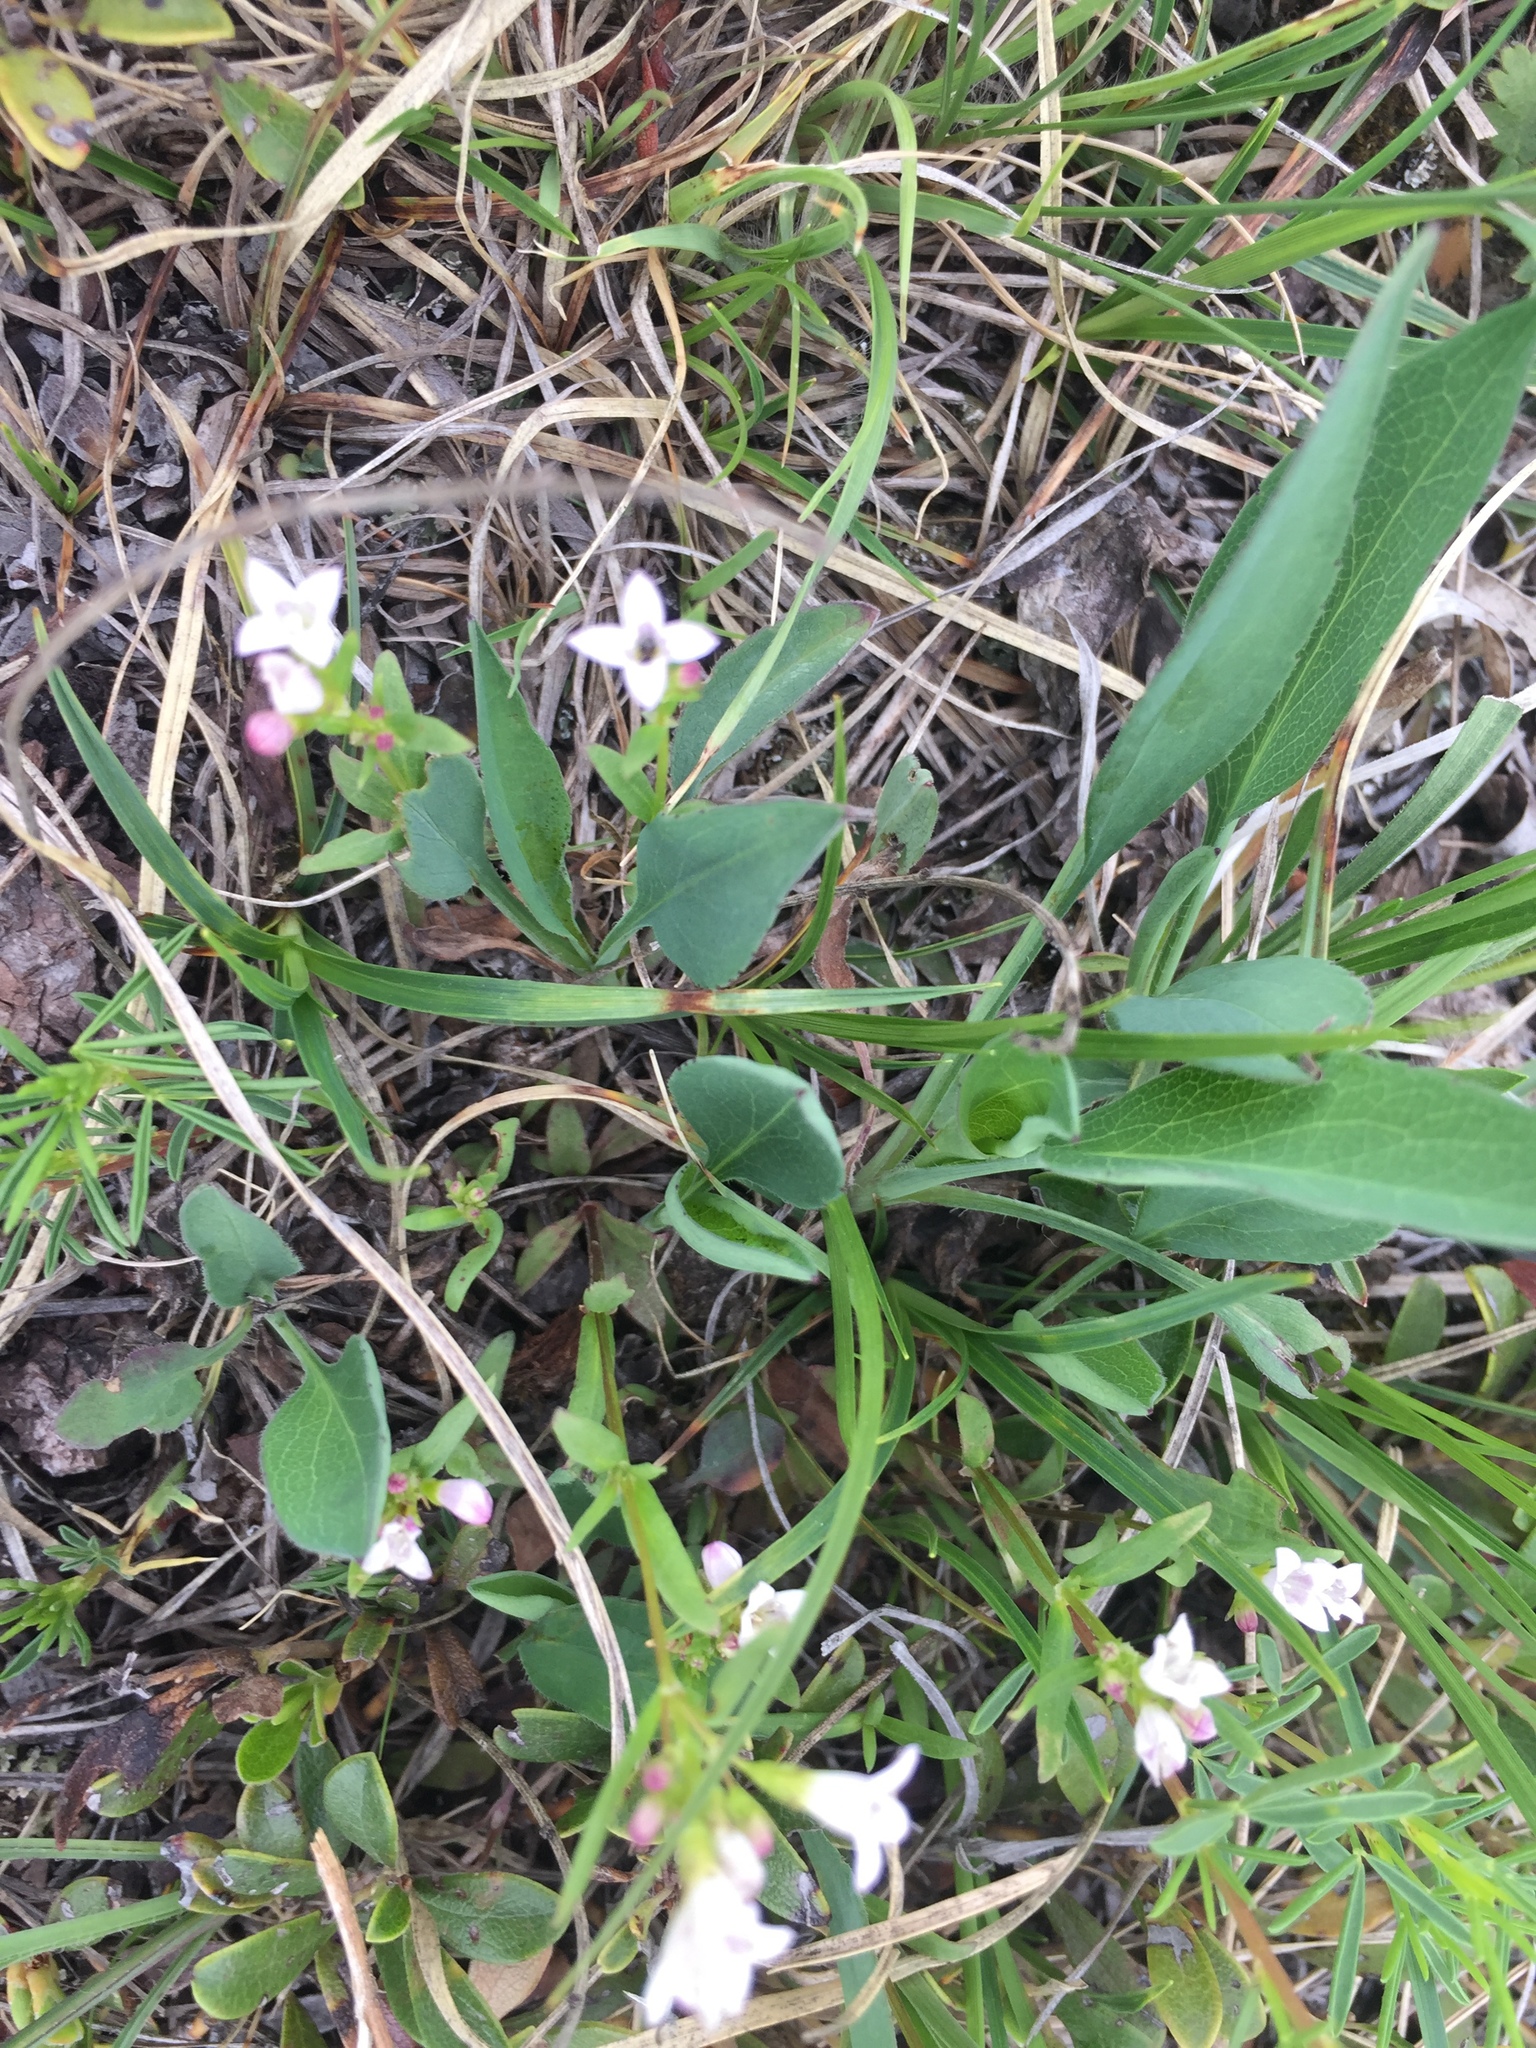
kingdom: Plantae
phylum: Tracheophyta
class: Magnoliopsida
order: Gentianales
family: Rubiaceae
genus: Houstonia
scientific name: Houstonia longifolia
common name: Long-leaved bluets
